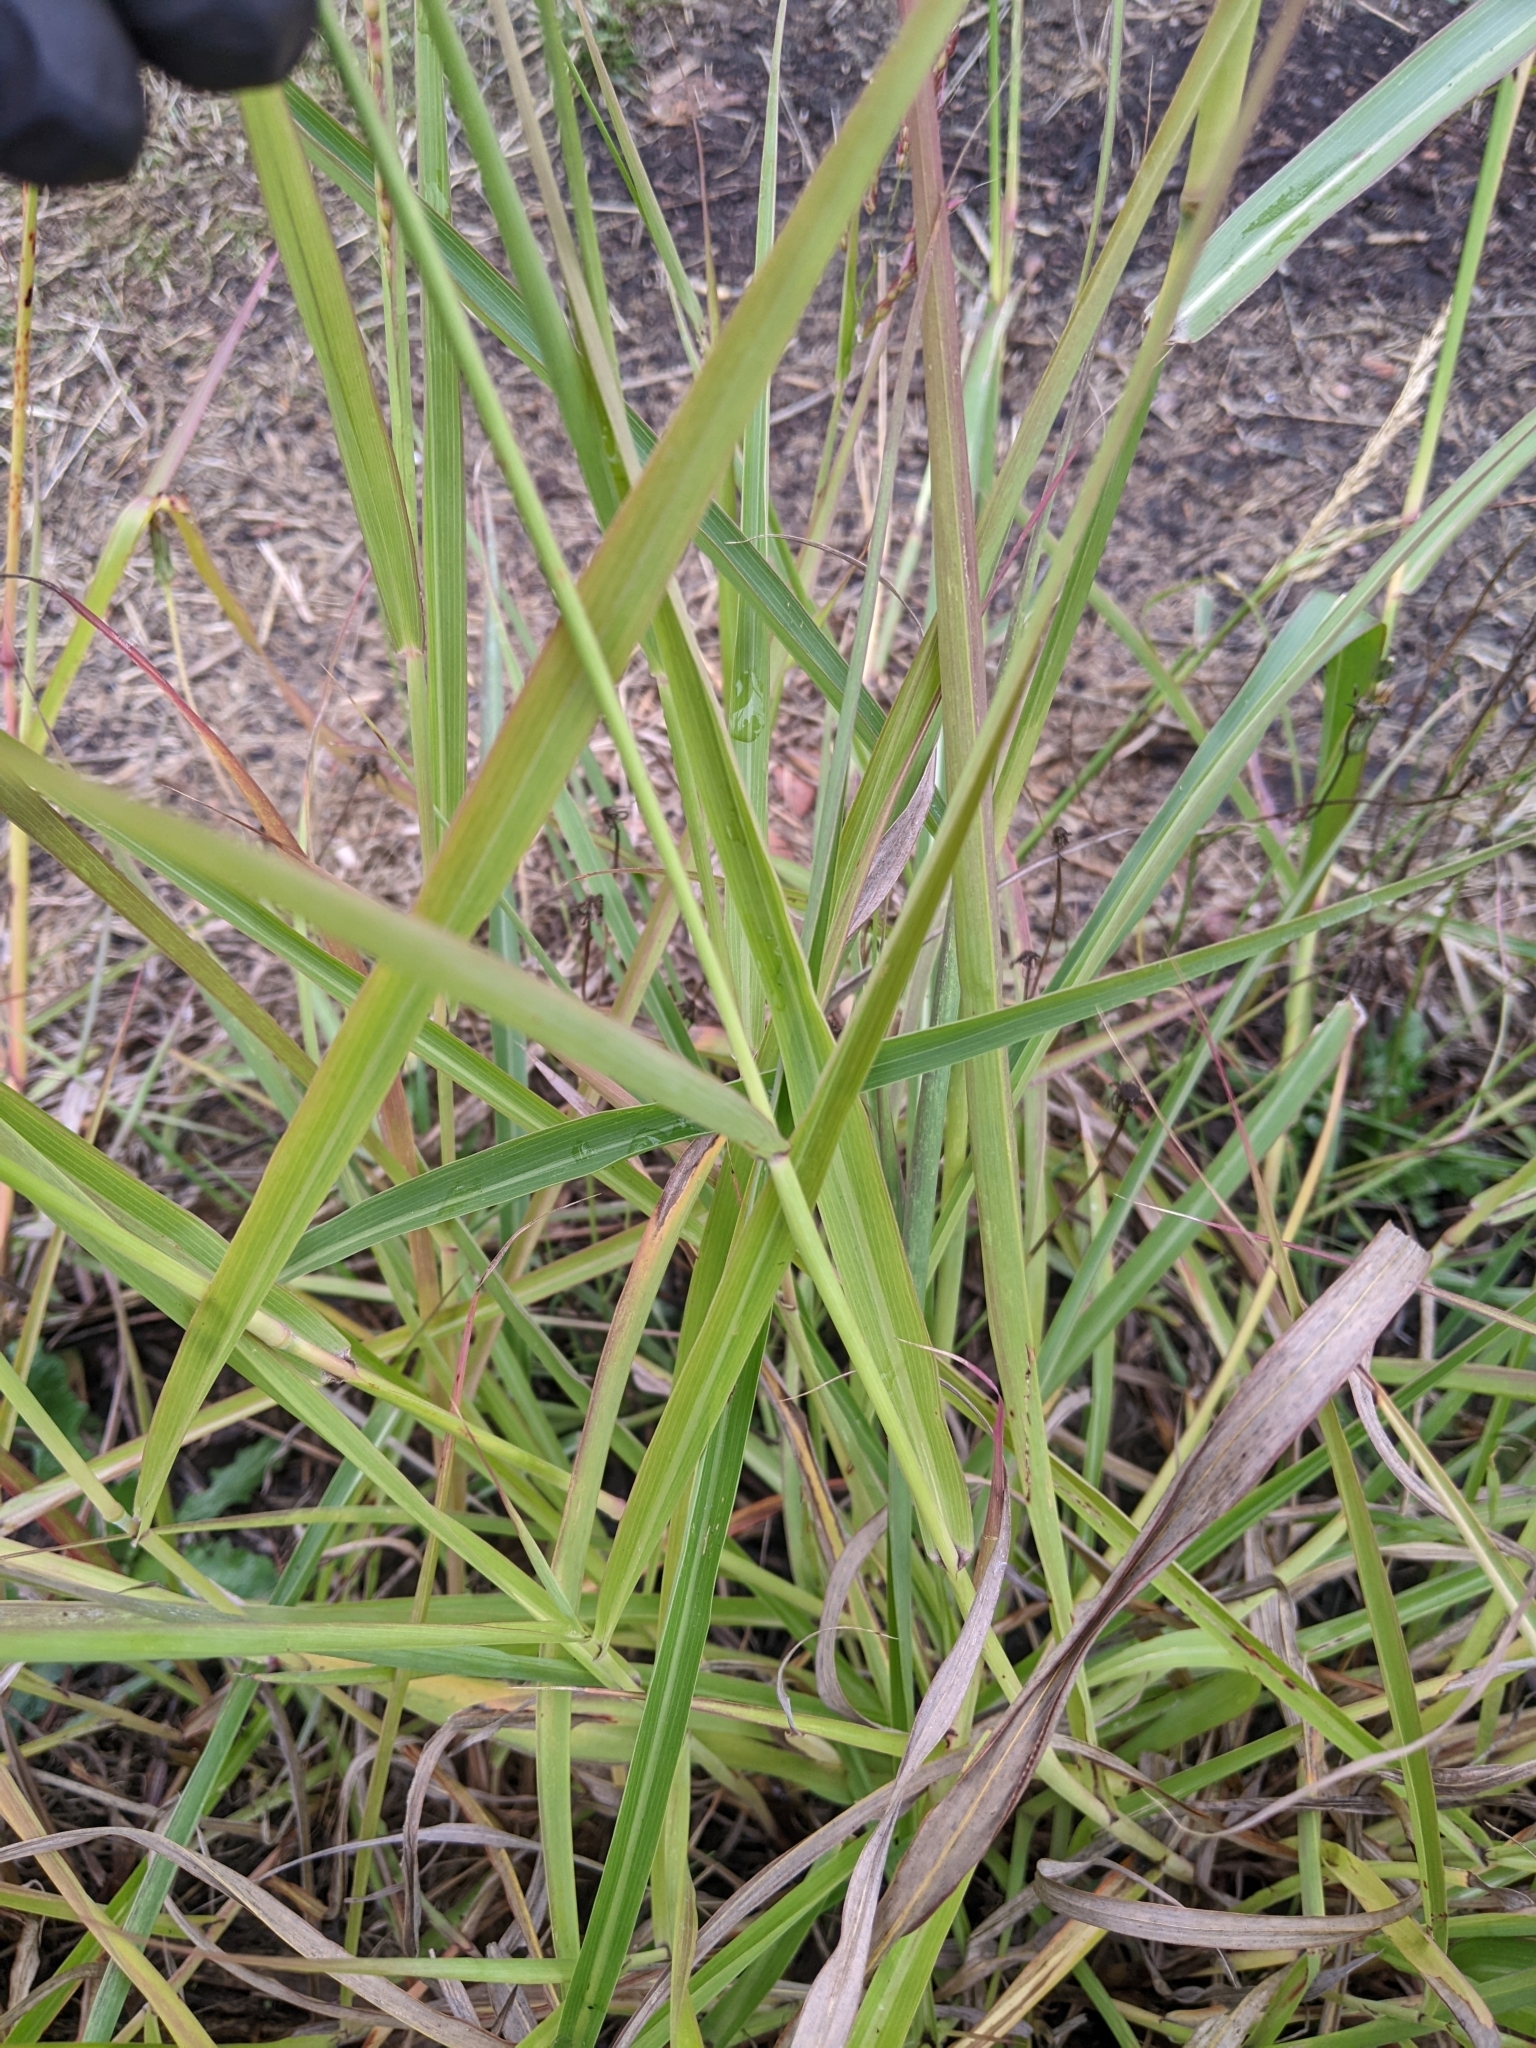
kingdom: Plantae
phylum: Tracheophyta
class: Liliopsida
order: Poales
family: Poaceae
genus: Sorghum
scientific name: Sorghum halepense
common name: Johnson-grass
